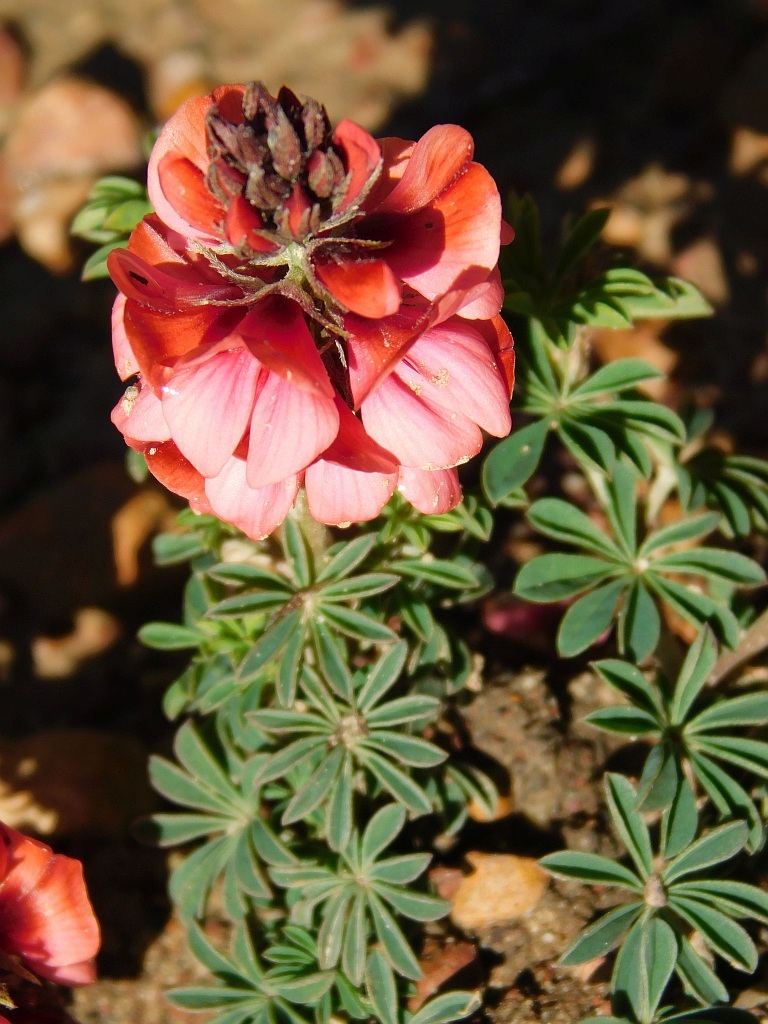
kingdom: Plantae
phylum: Tracheophyta
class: Magnoliopsida
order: Fabales
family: Fabaceae
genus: Indigofera
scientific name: Indigofera digitata
